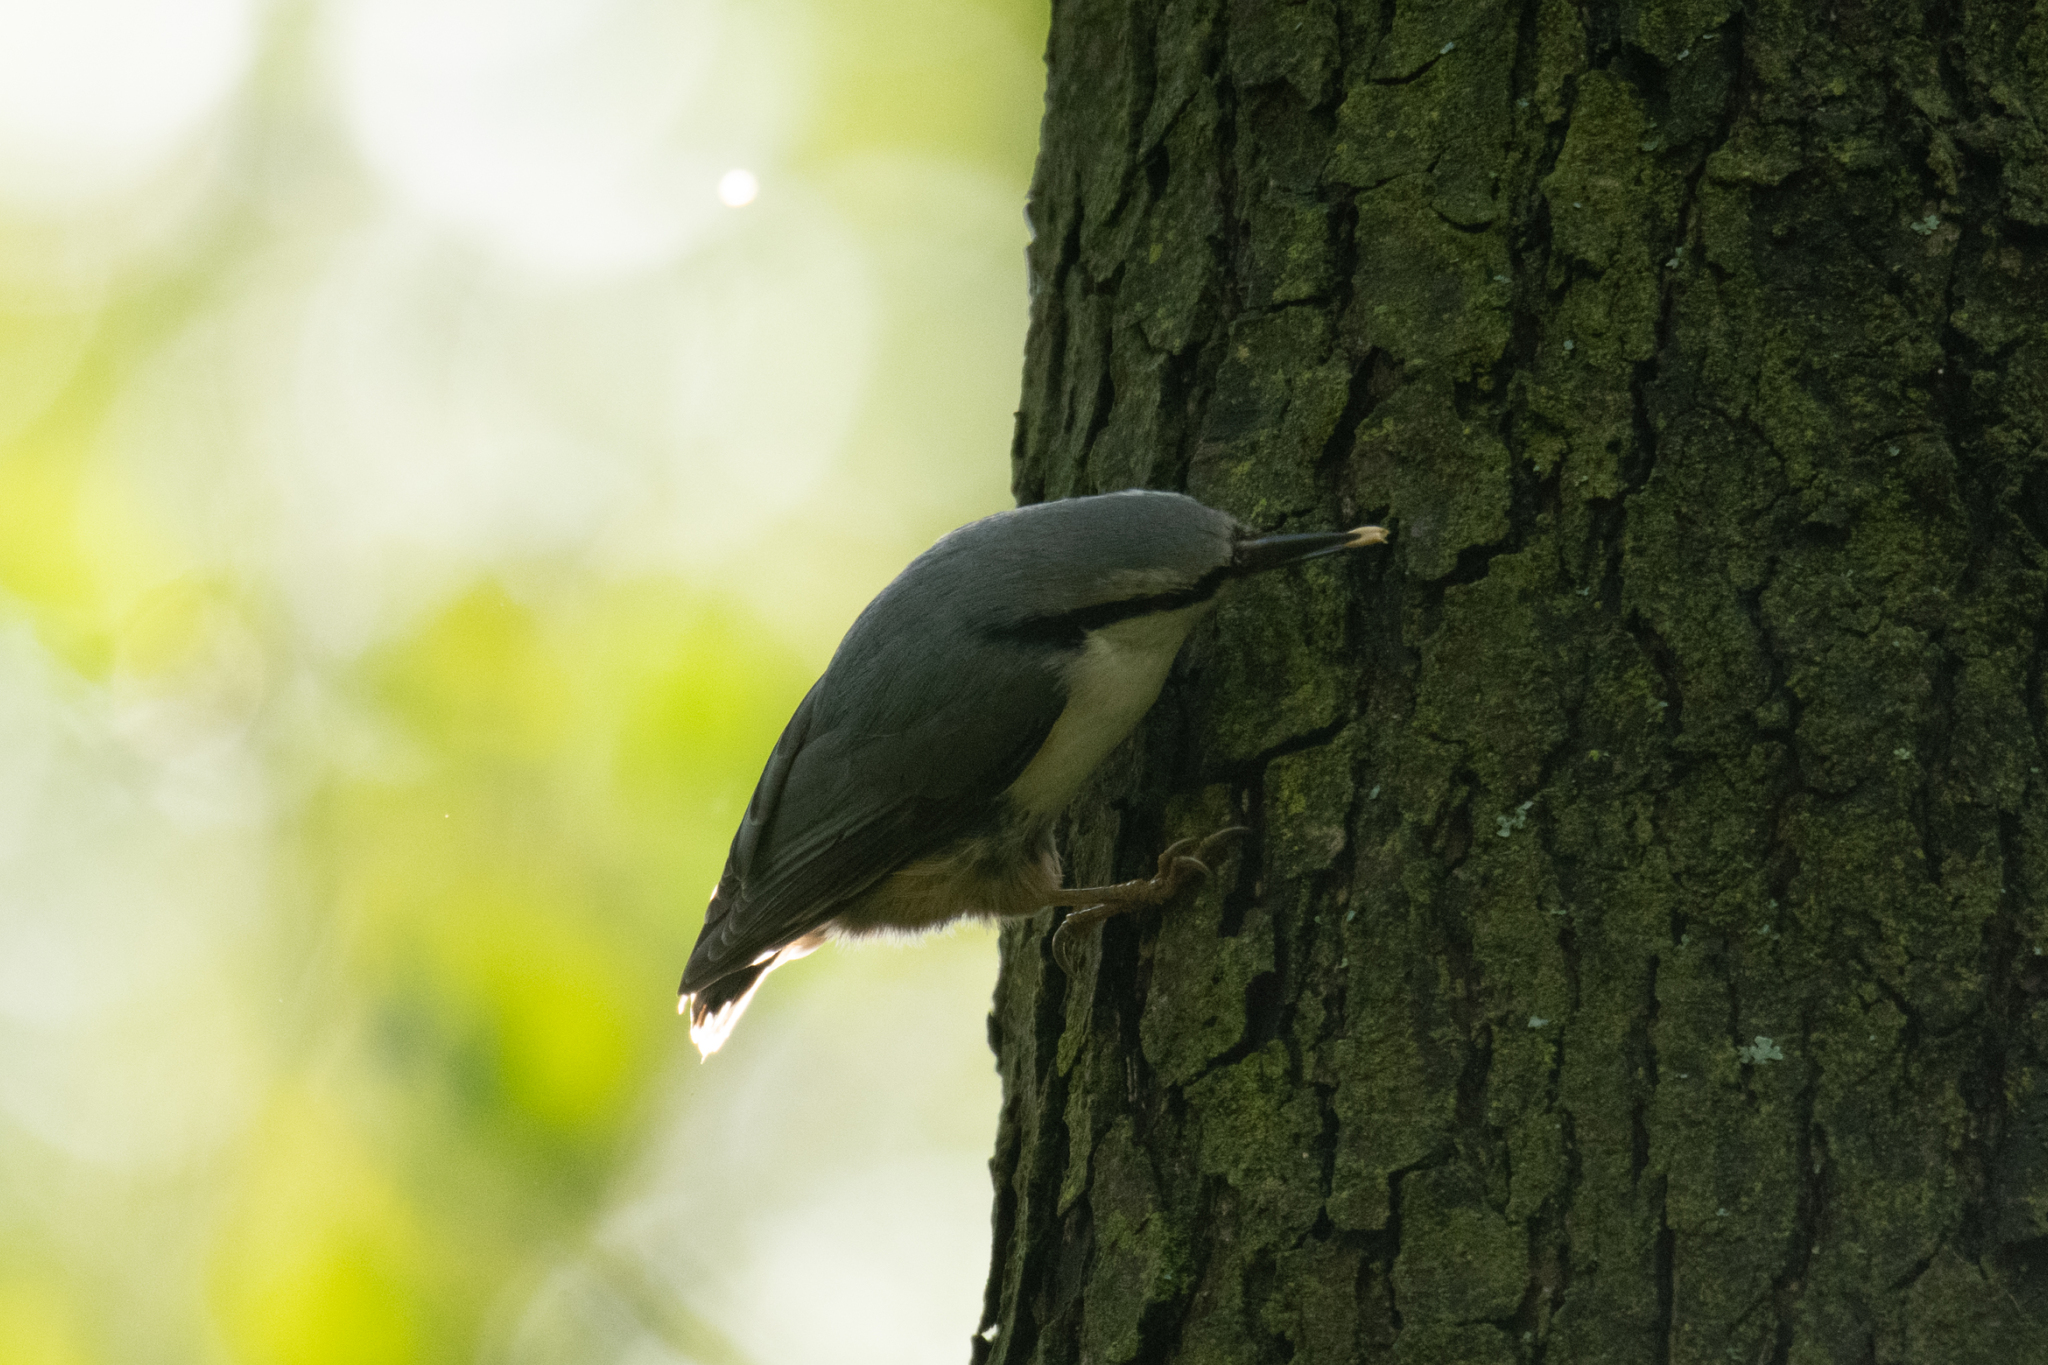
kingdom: Animalia
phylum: Chordata
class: Aves
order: Passeriformes
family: Sittidae
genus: Sitta
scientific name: Sitta europaea
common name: Eurasian nuthatch
